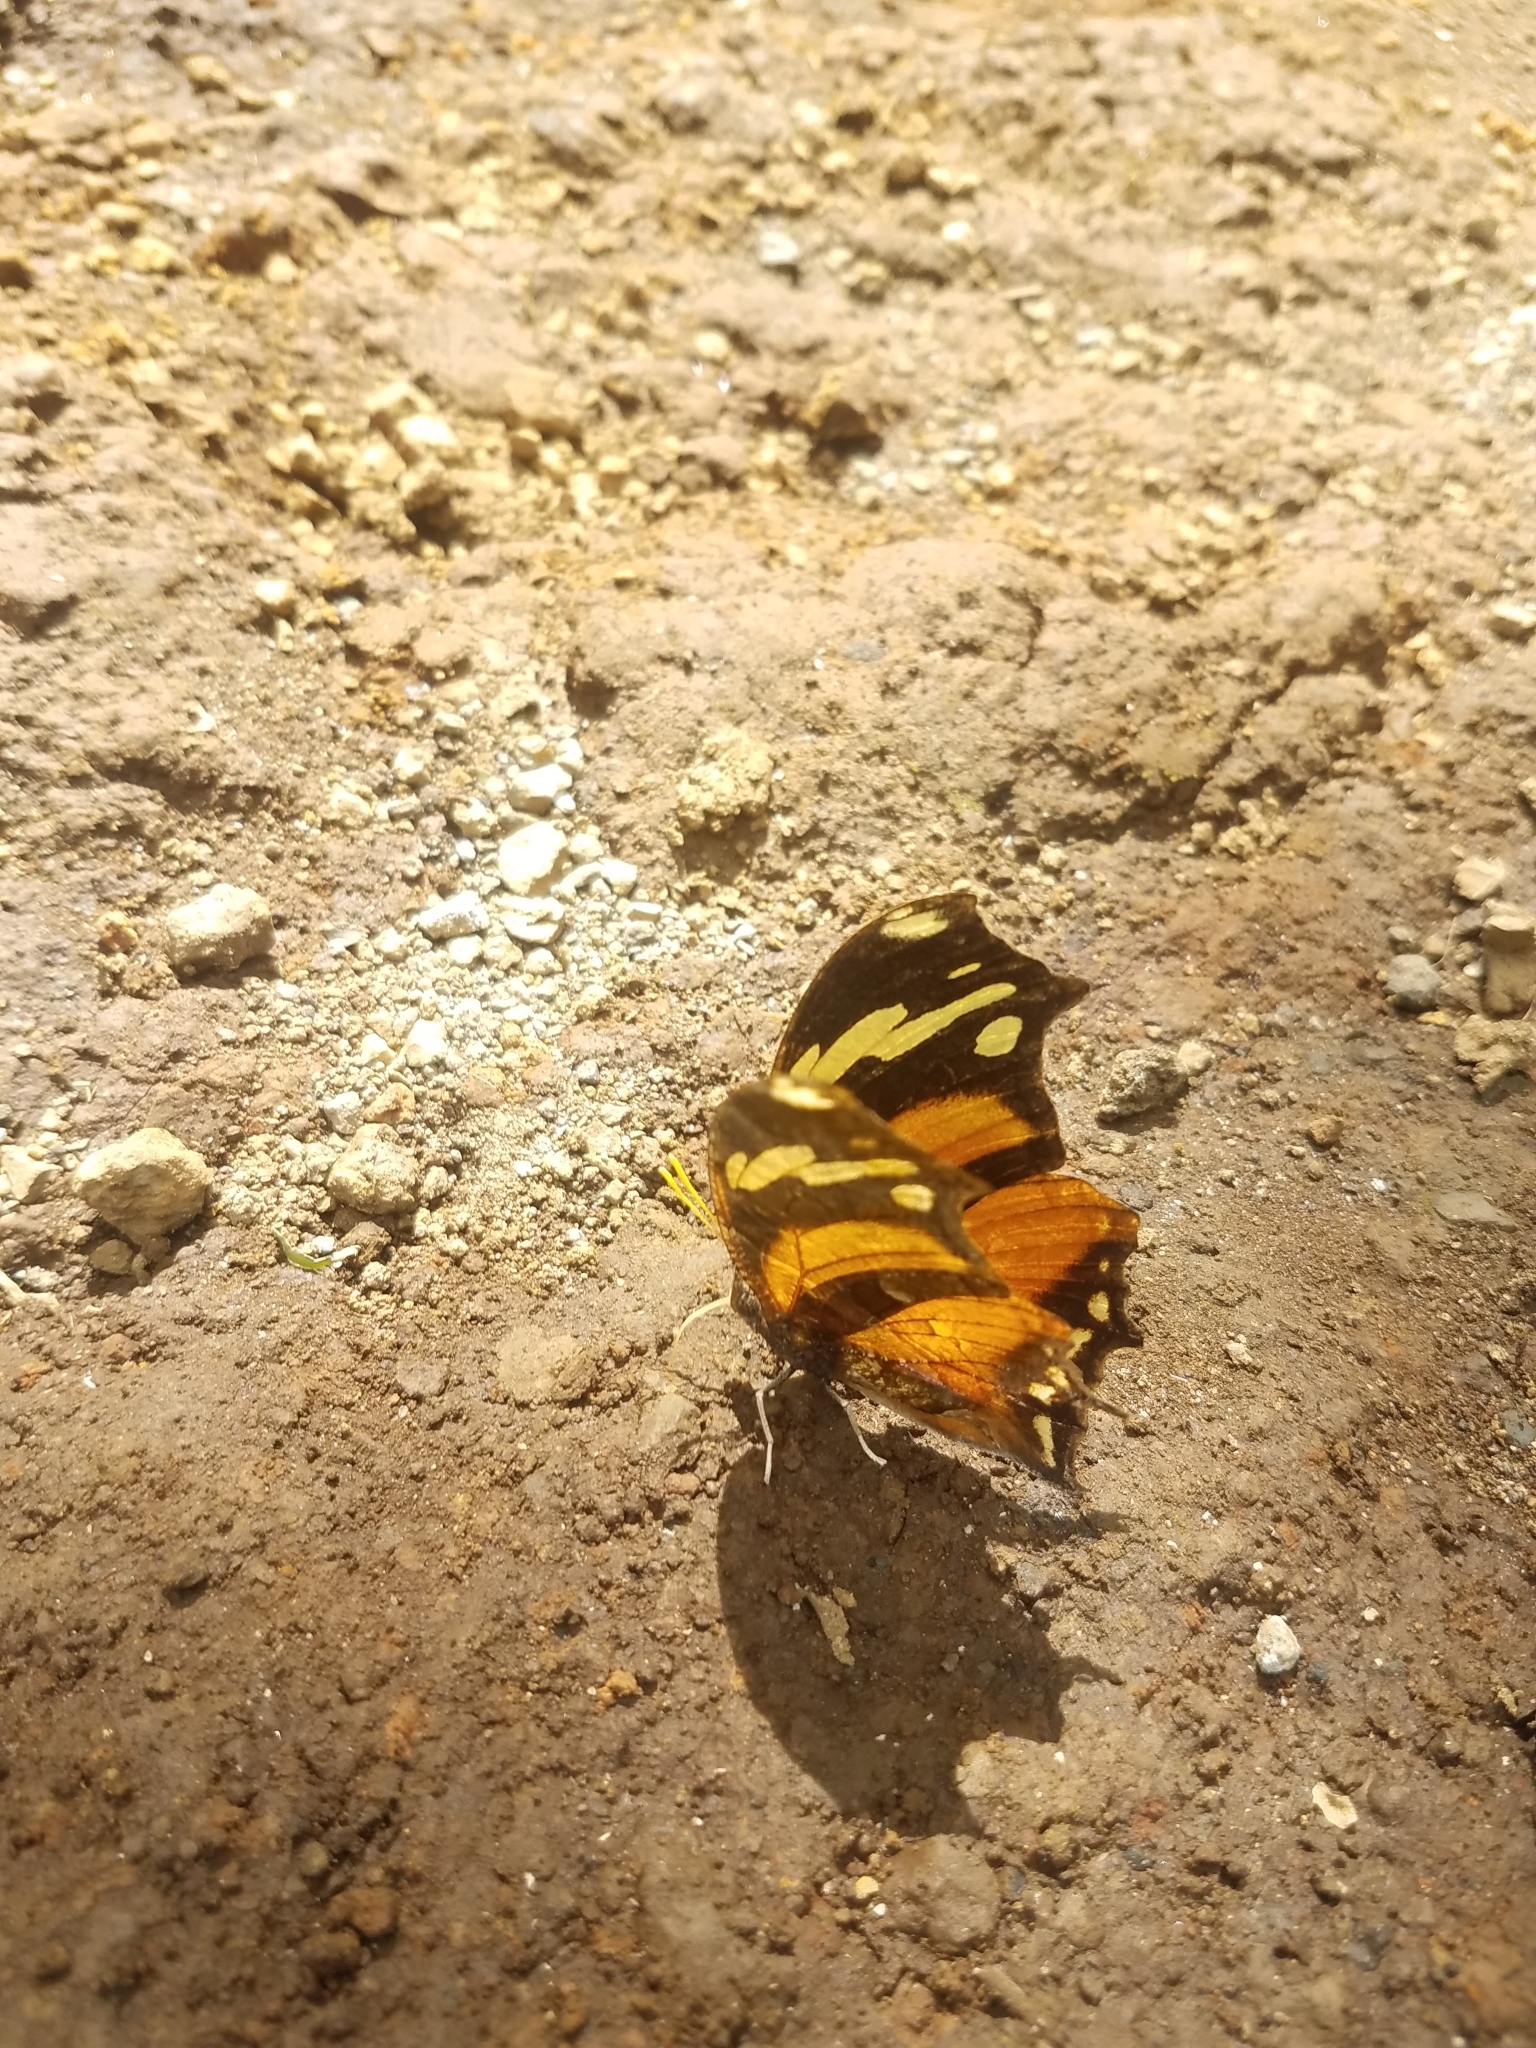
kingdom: Animalia
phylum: Arthropoda
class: Insecta
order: Lepidoptera
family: Nymphalidae
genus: Consul
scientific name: Consul fabius
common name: Tiger leafwing
